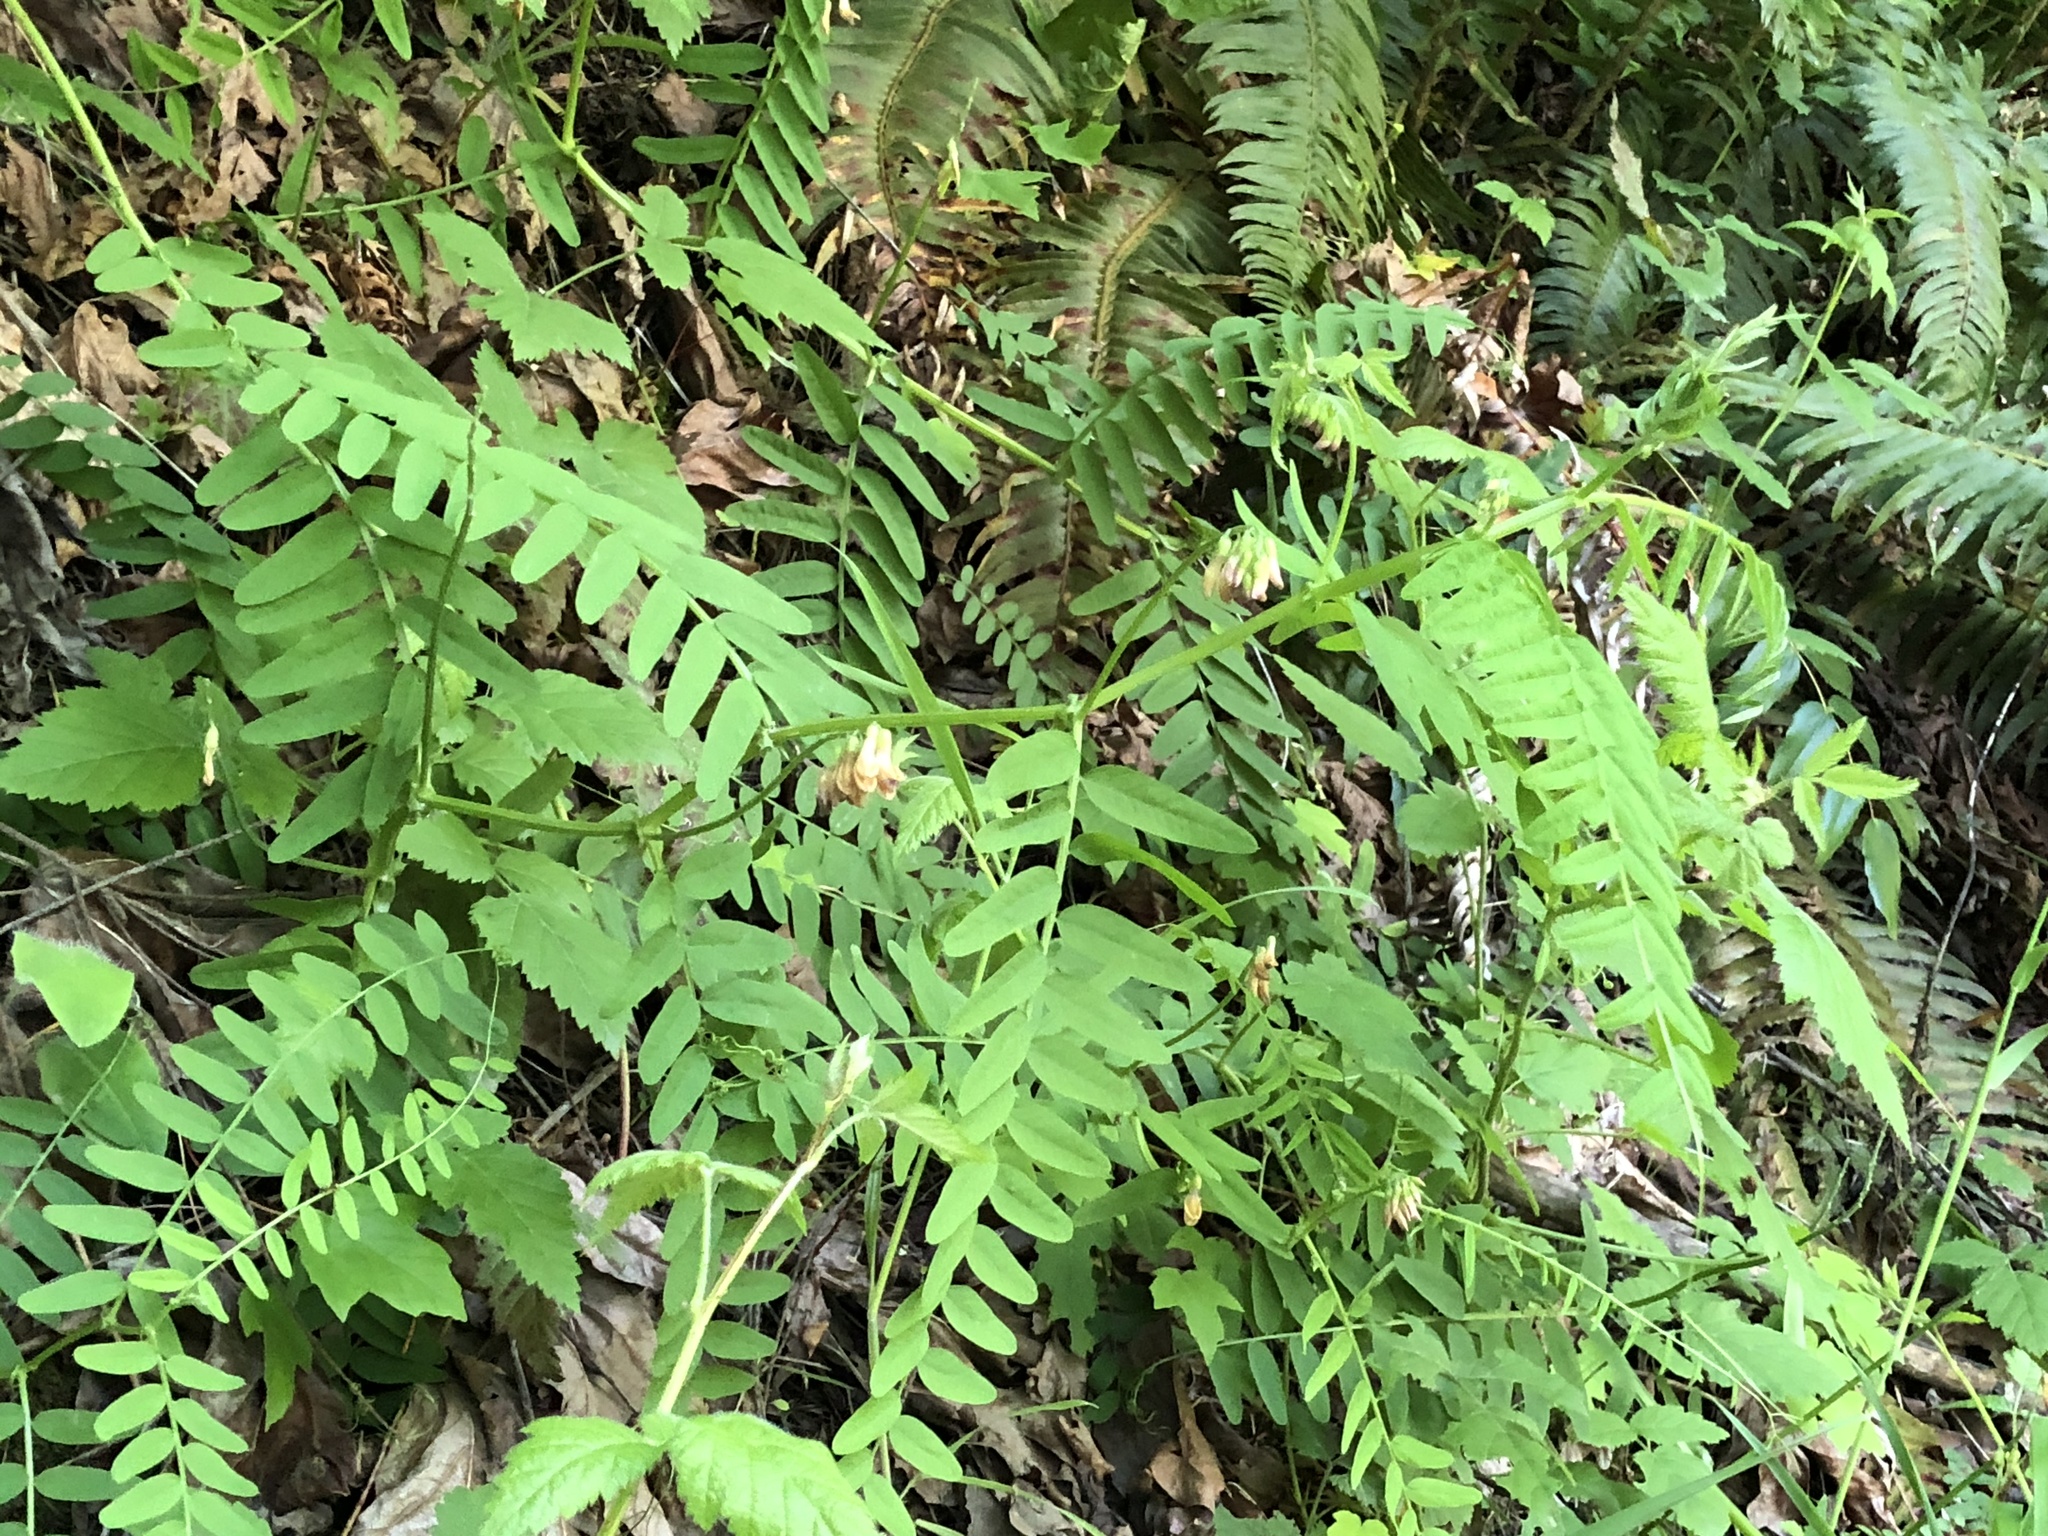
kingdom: Plantae
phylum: Tracheophyta
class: Magnoliopsida
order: Fabales
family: Fabaceae
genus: Vicia
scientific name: Vicia
